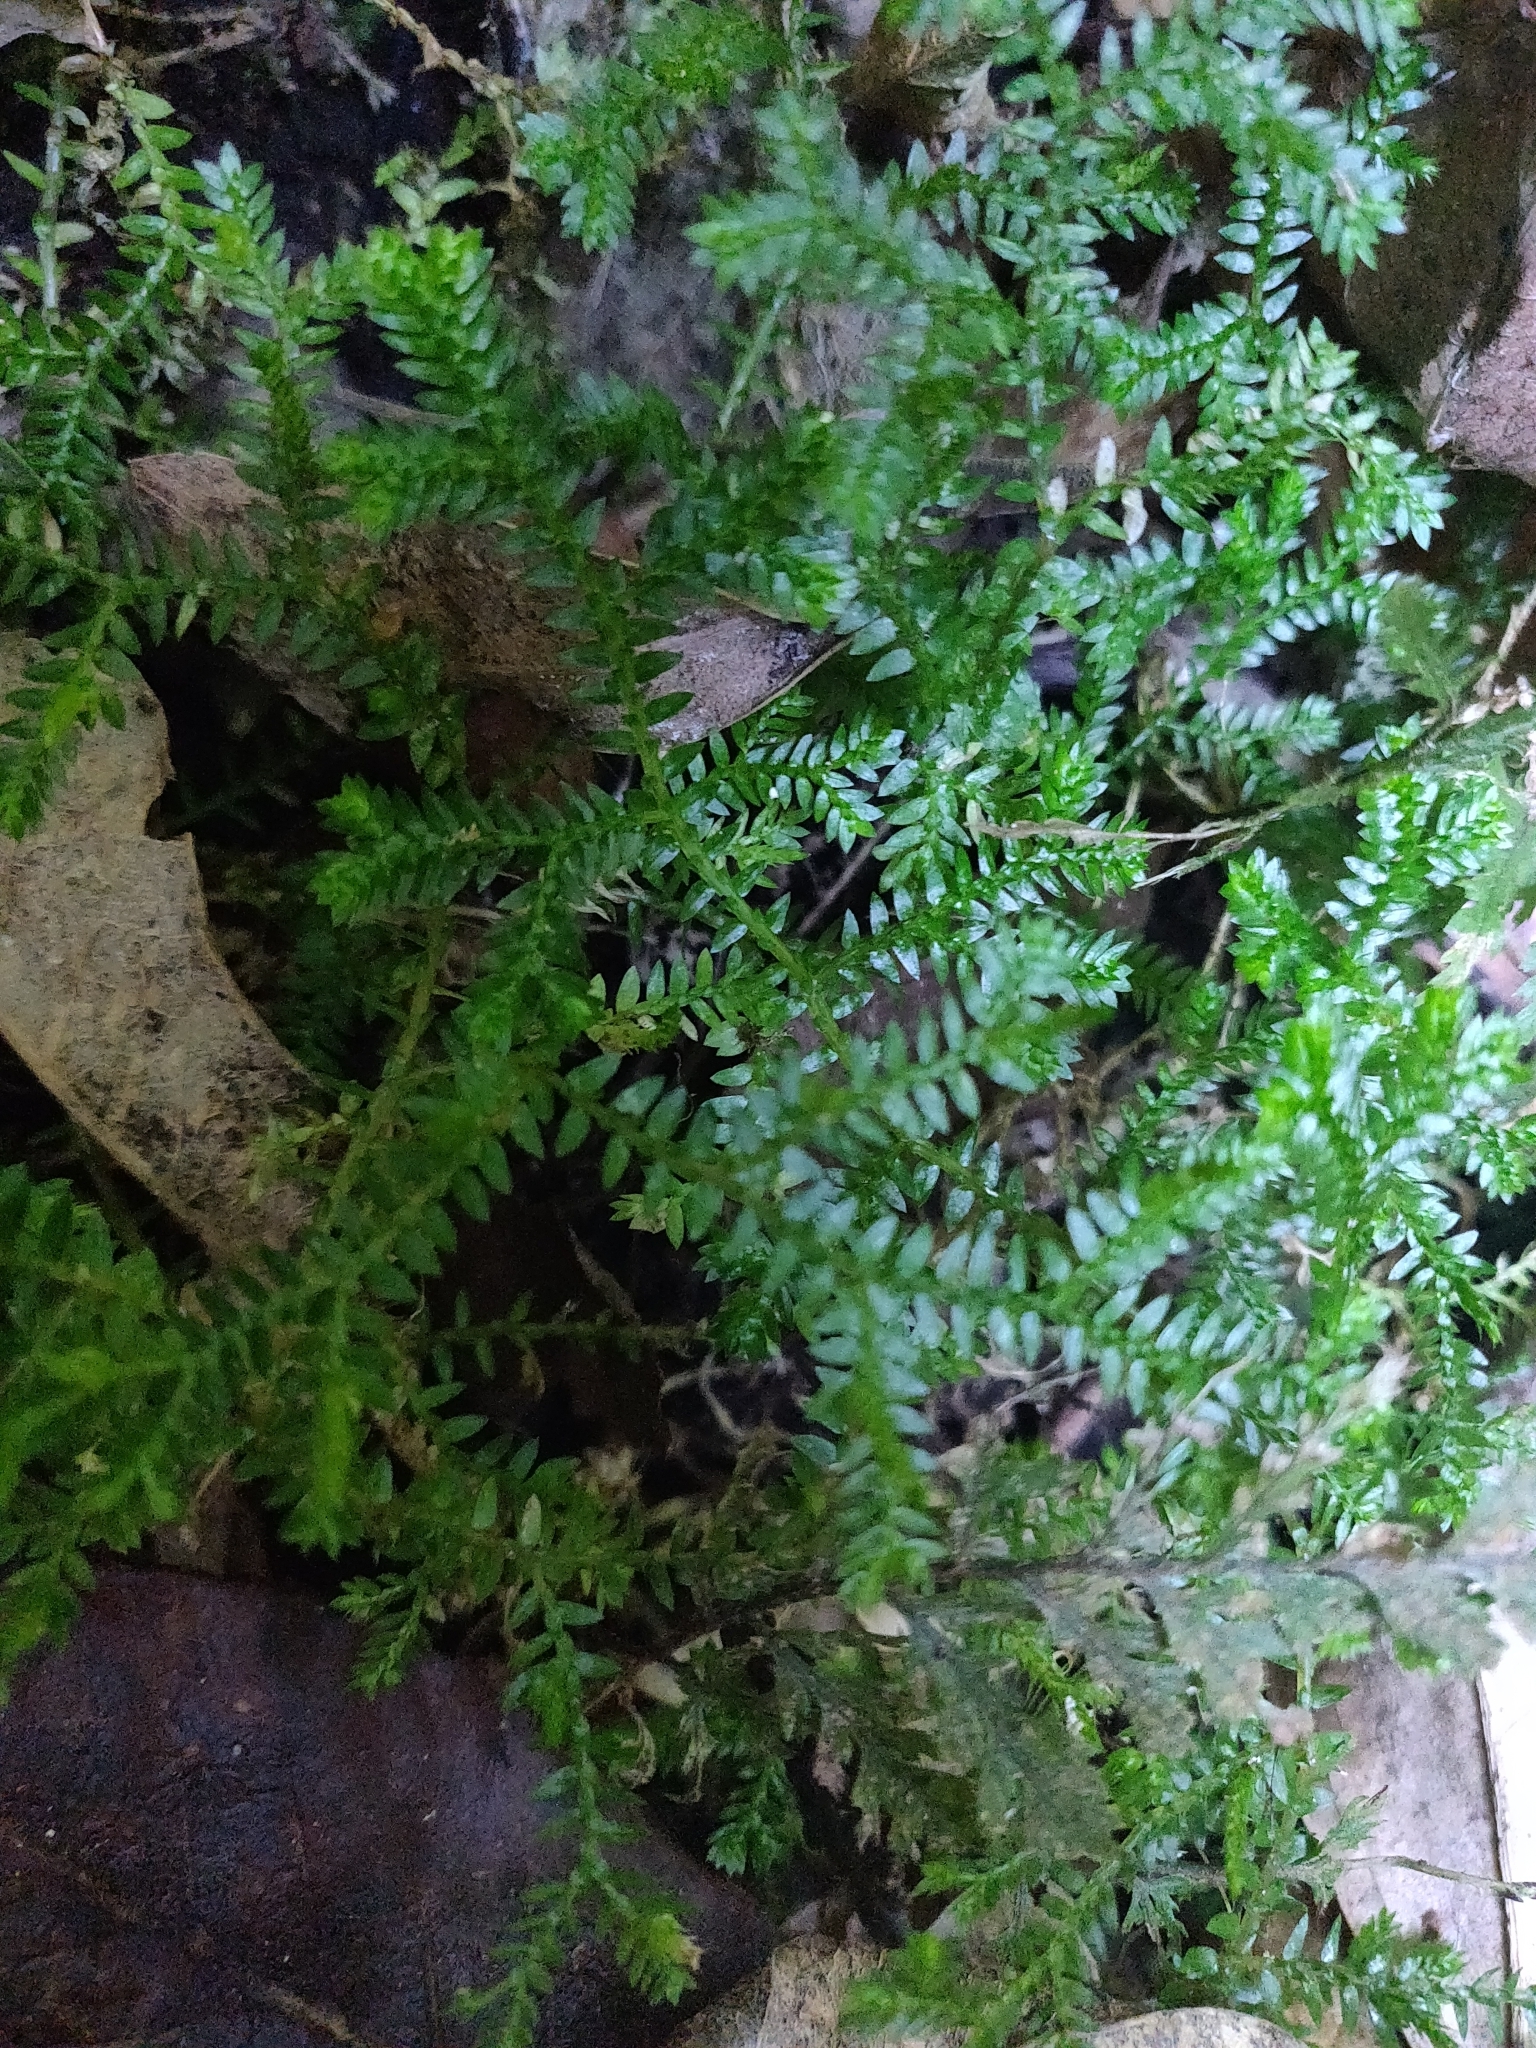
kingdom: Plantae
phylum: Tracheophyta
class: Lycopodiopsida
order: Selaginellales
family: Selaginellaceae
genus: Selaginella
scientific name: Selaginella kraussiana
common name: Krauss' spikemoss
